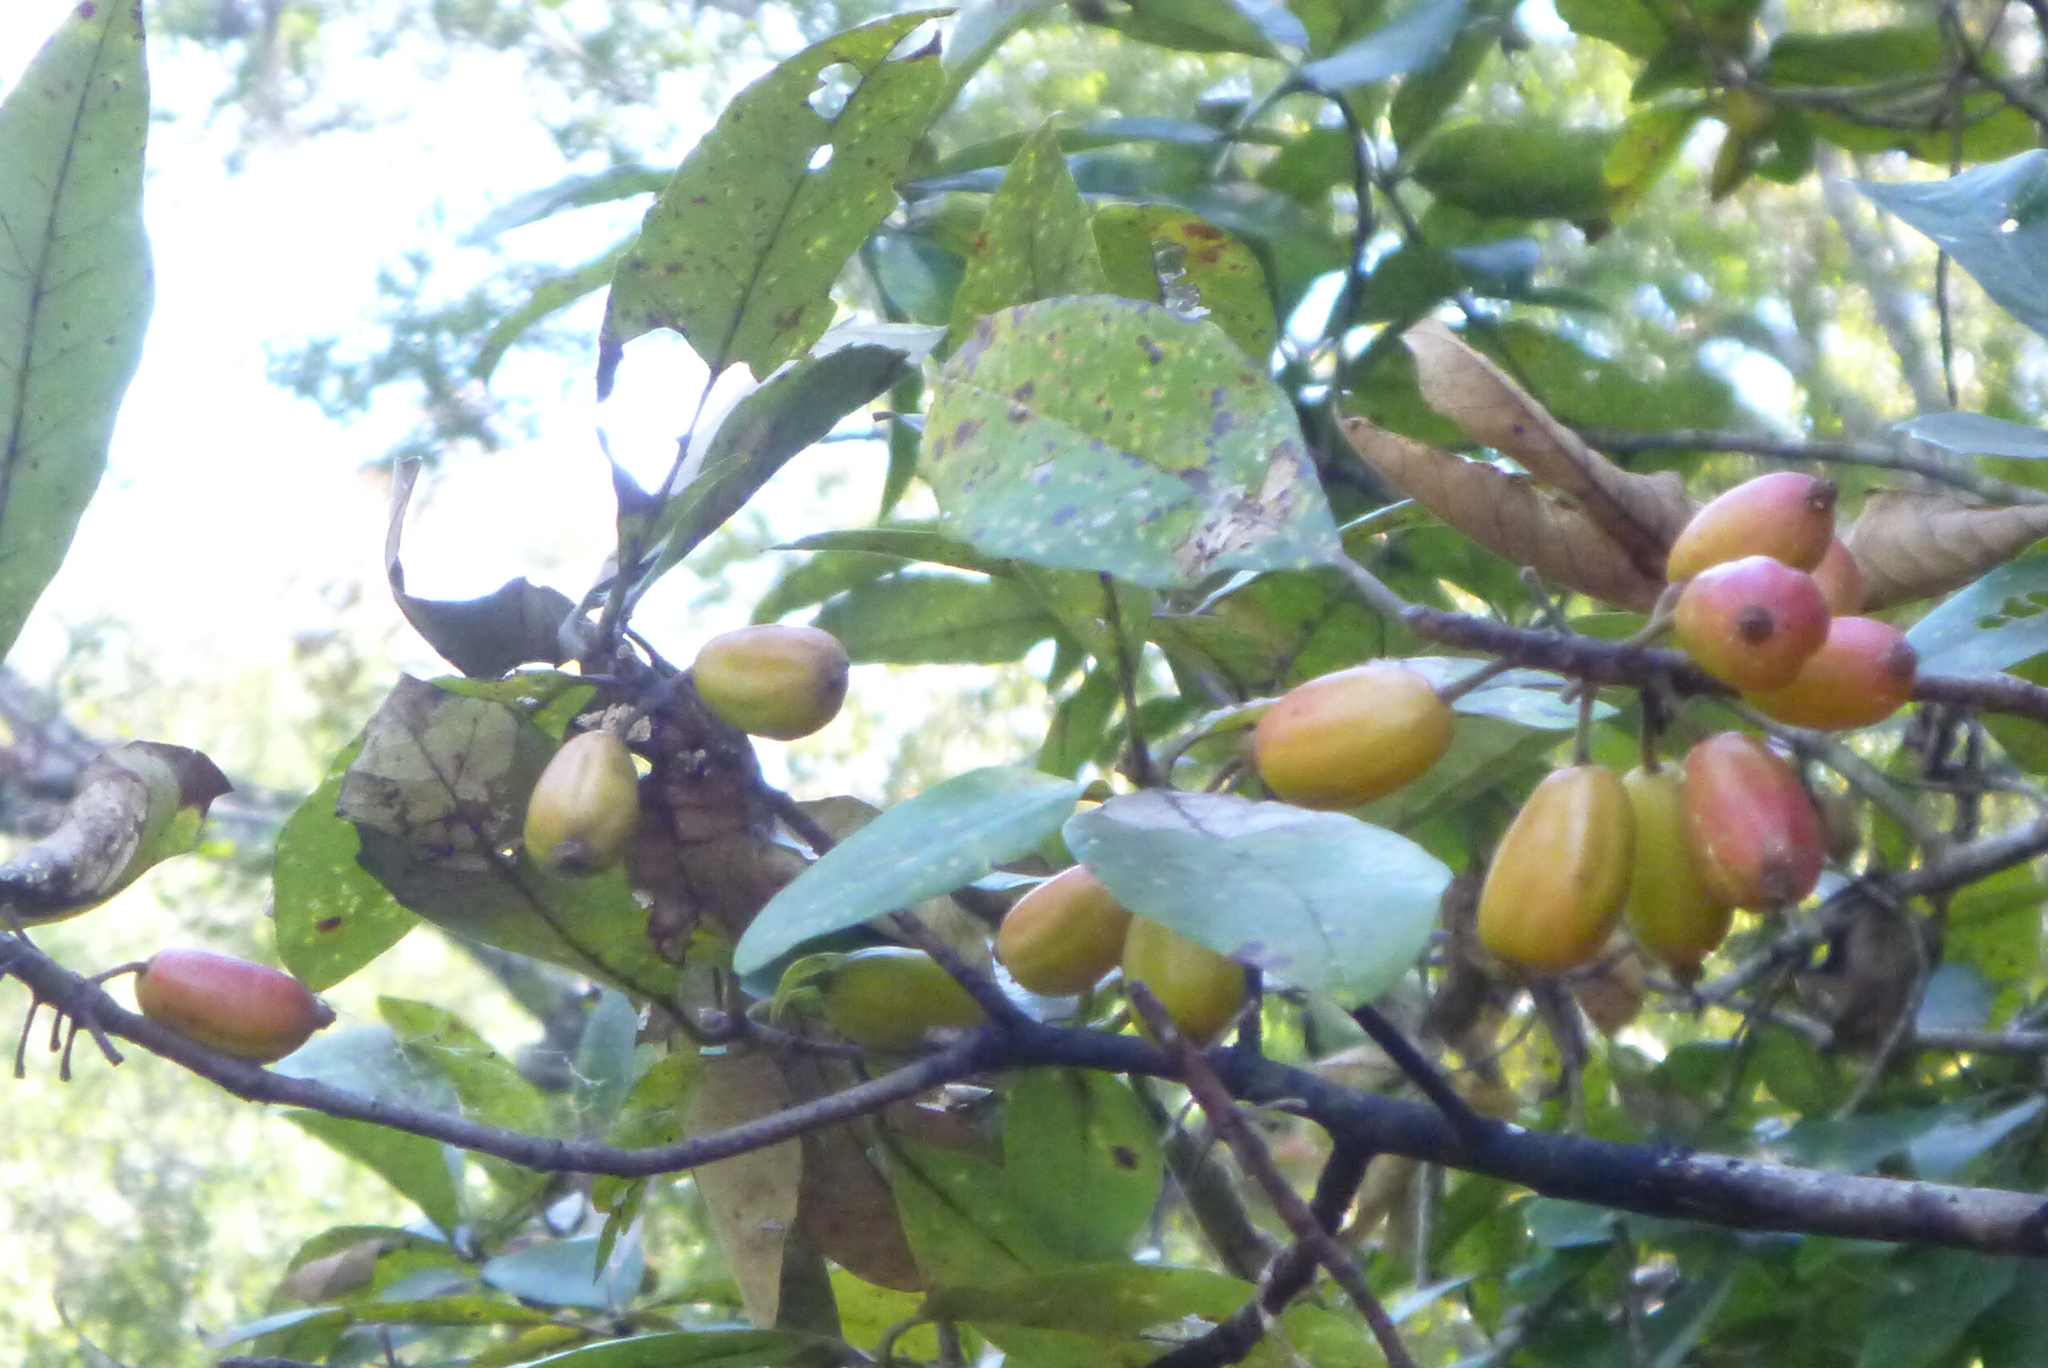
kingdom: Plantae
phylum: Tracheophyta
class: Magnoliopsida
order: Cornales
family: Nyssaceae
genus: Nyssa
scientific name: Nyssa ogeche
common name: Ogeechee tupelo
